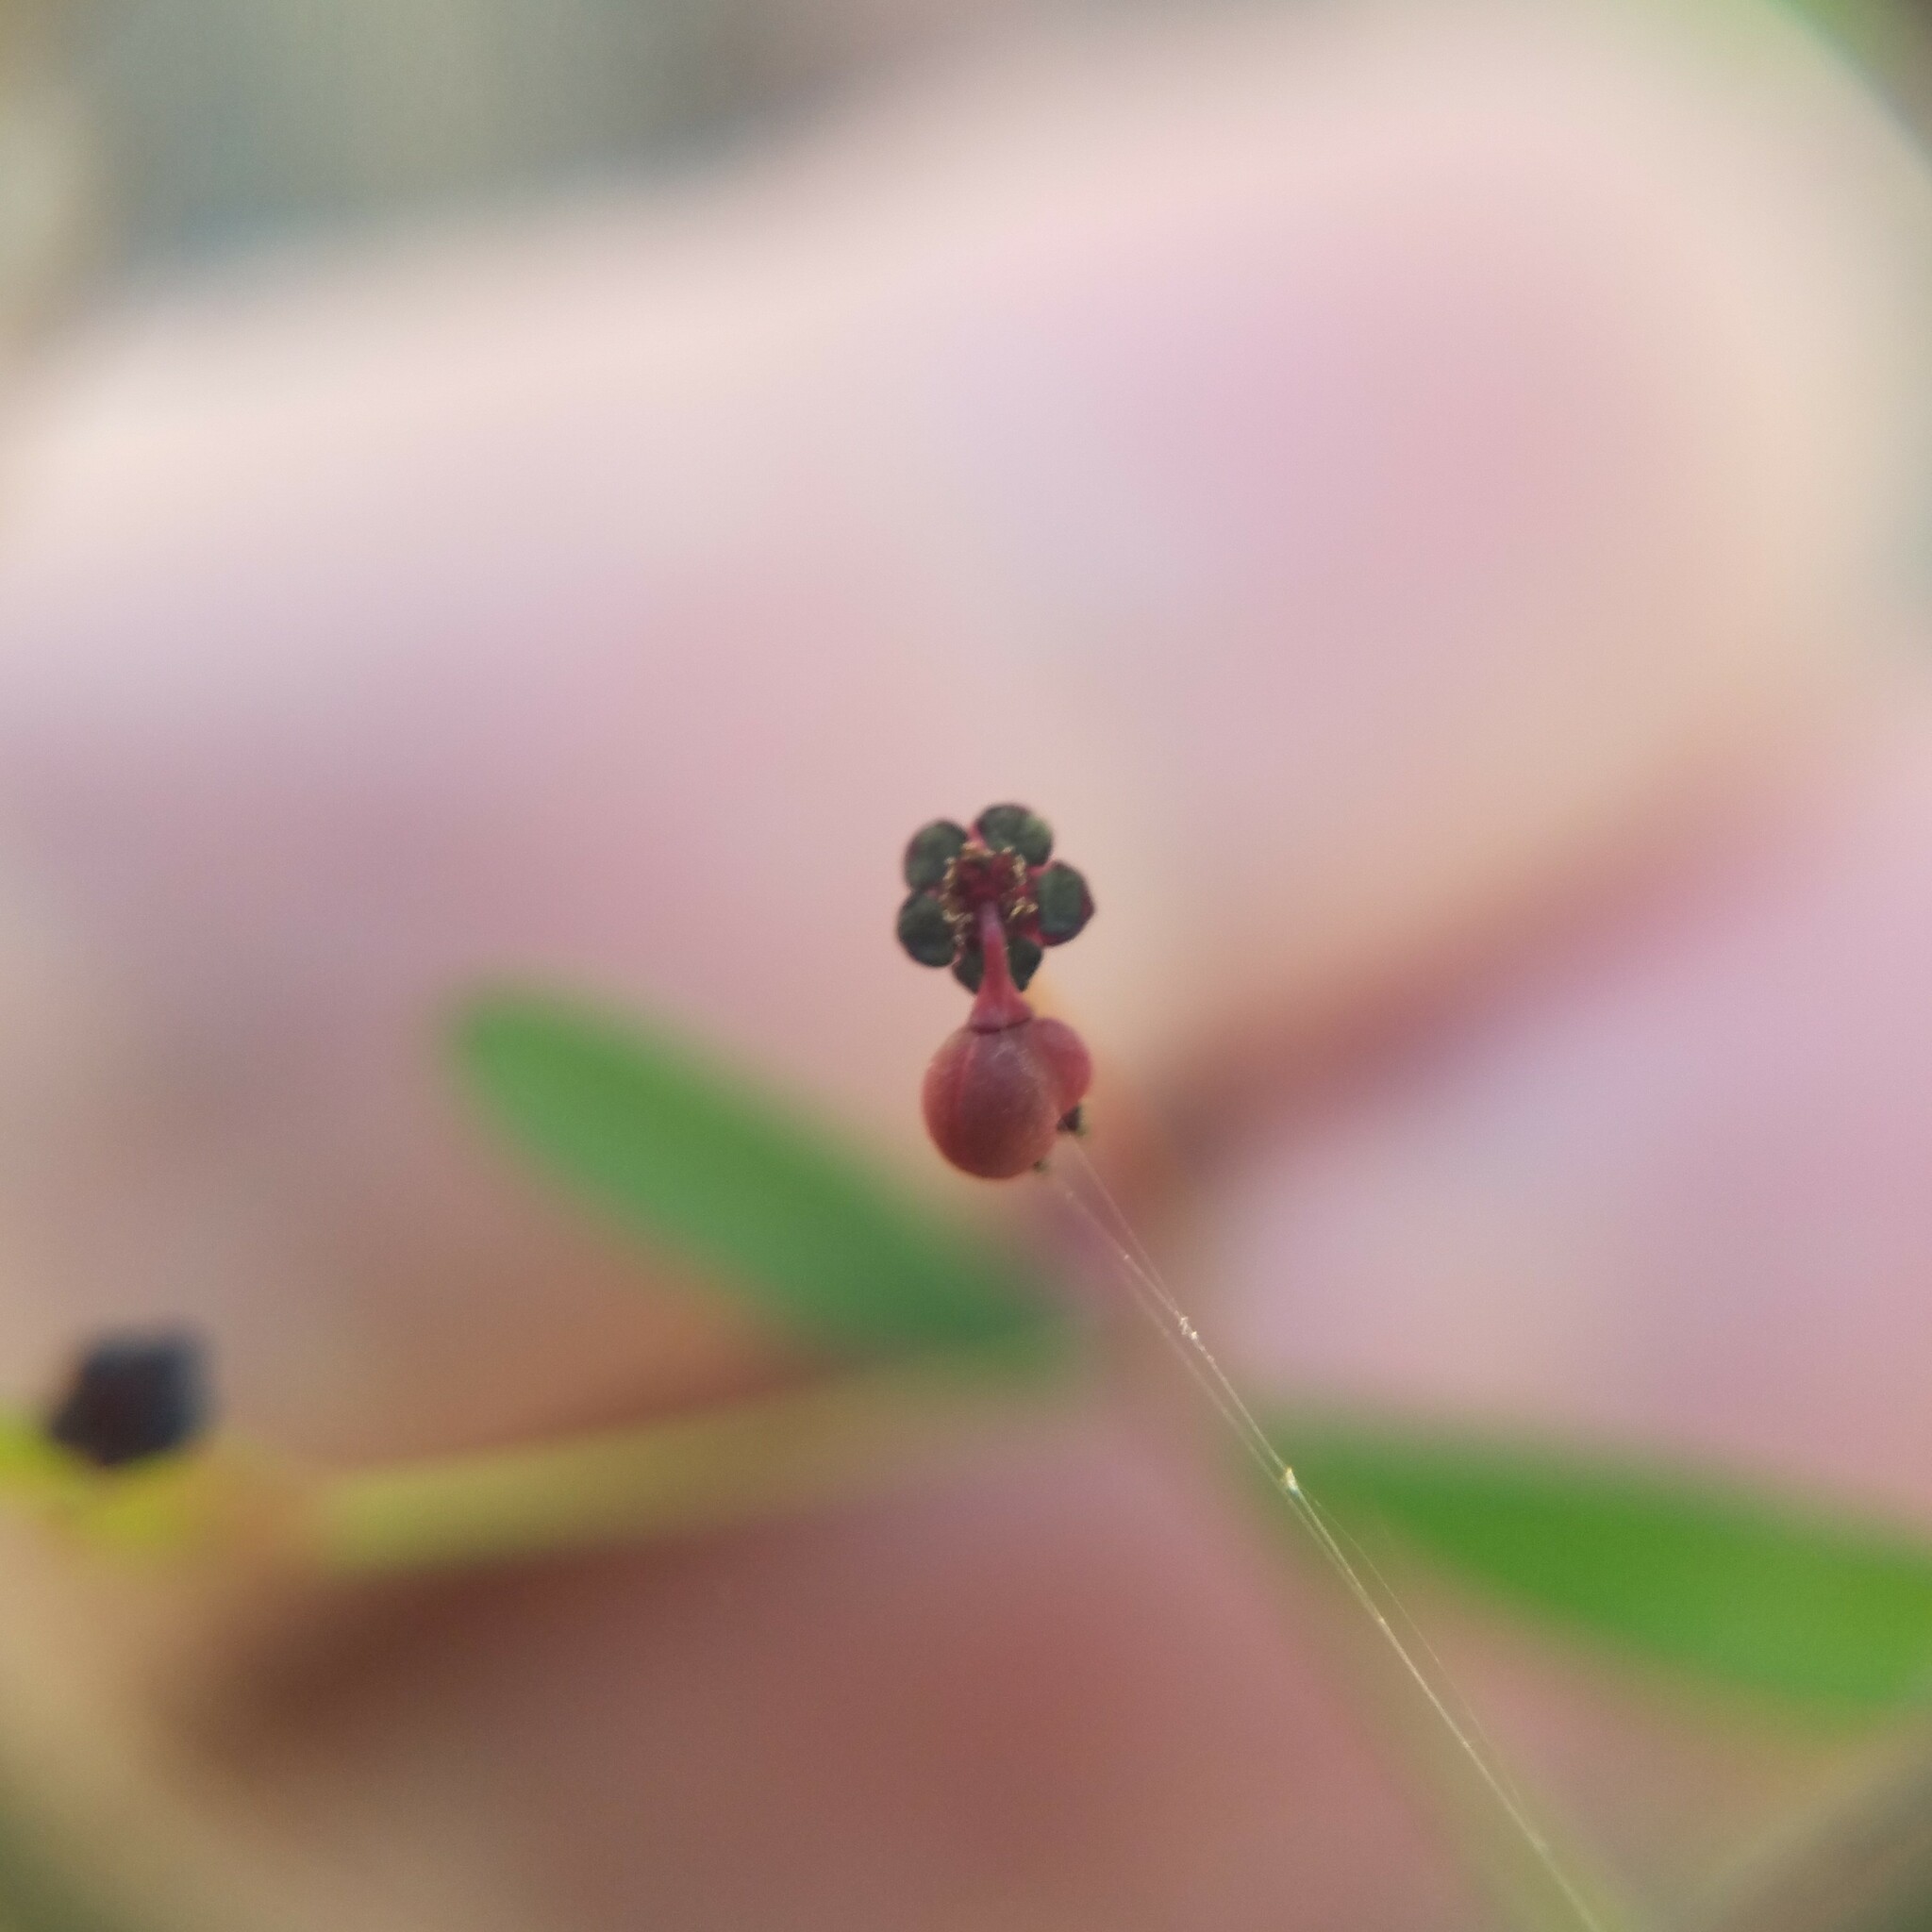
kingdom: Plantae
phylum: Tracheophyta
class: Magnoliopsida
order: Malpighiales
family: Euphorbiaceae
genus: Euphorbia
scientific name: Euphorbia exserta
